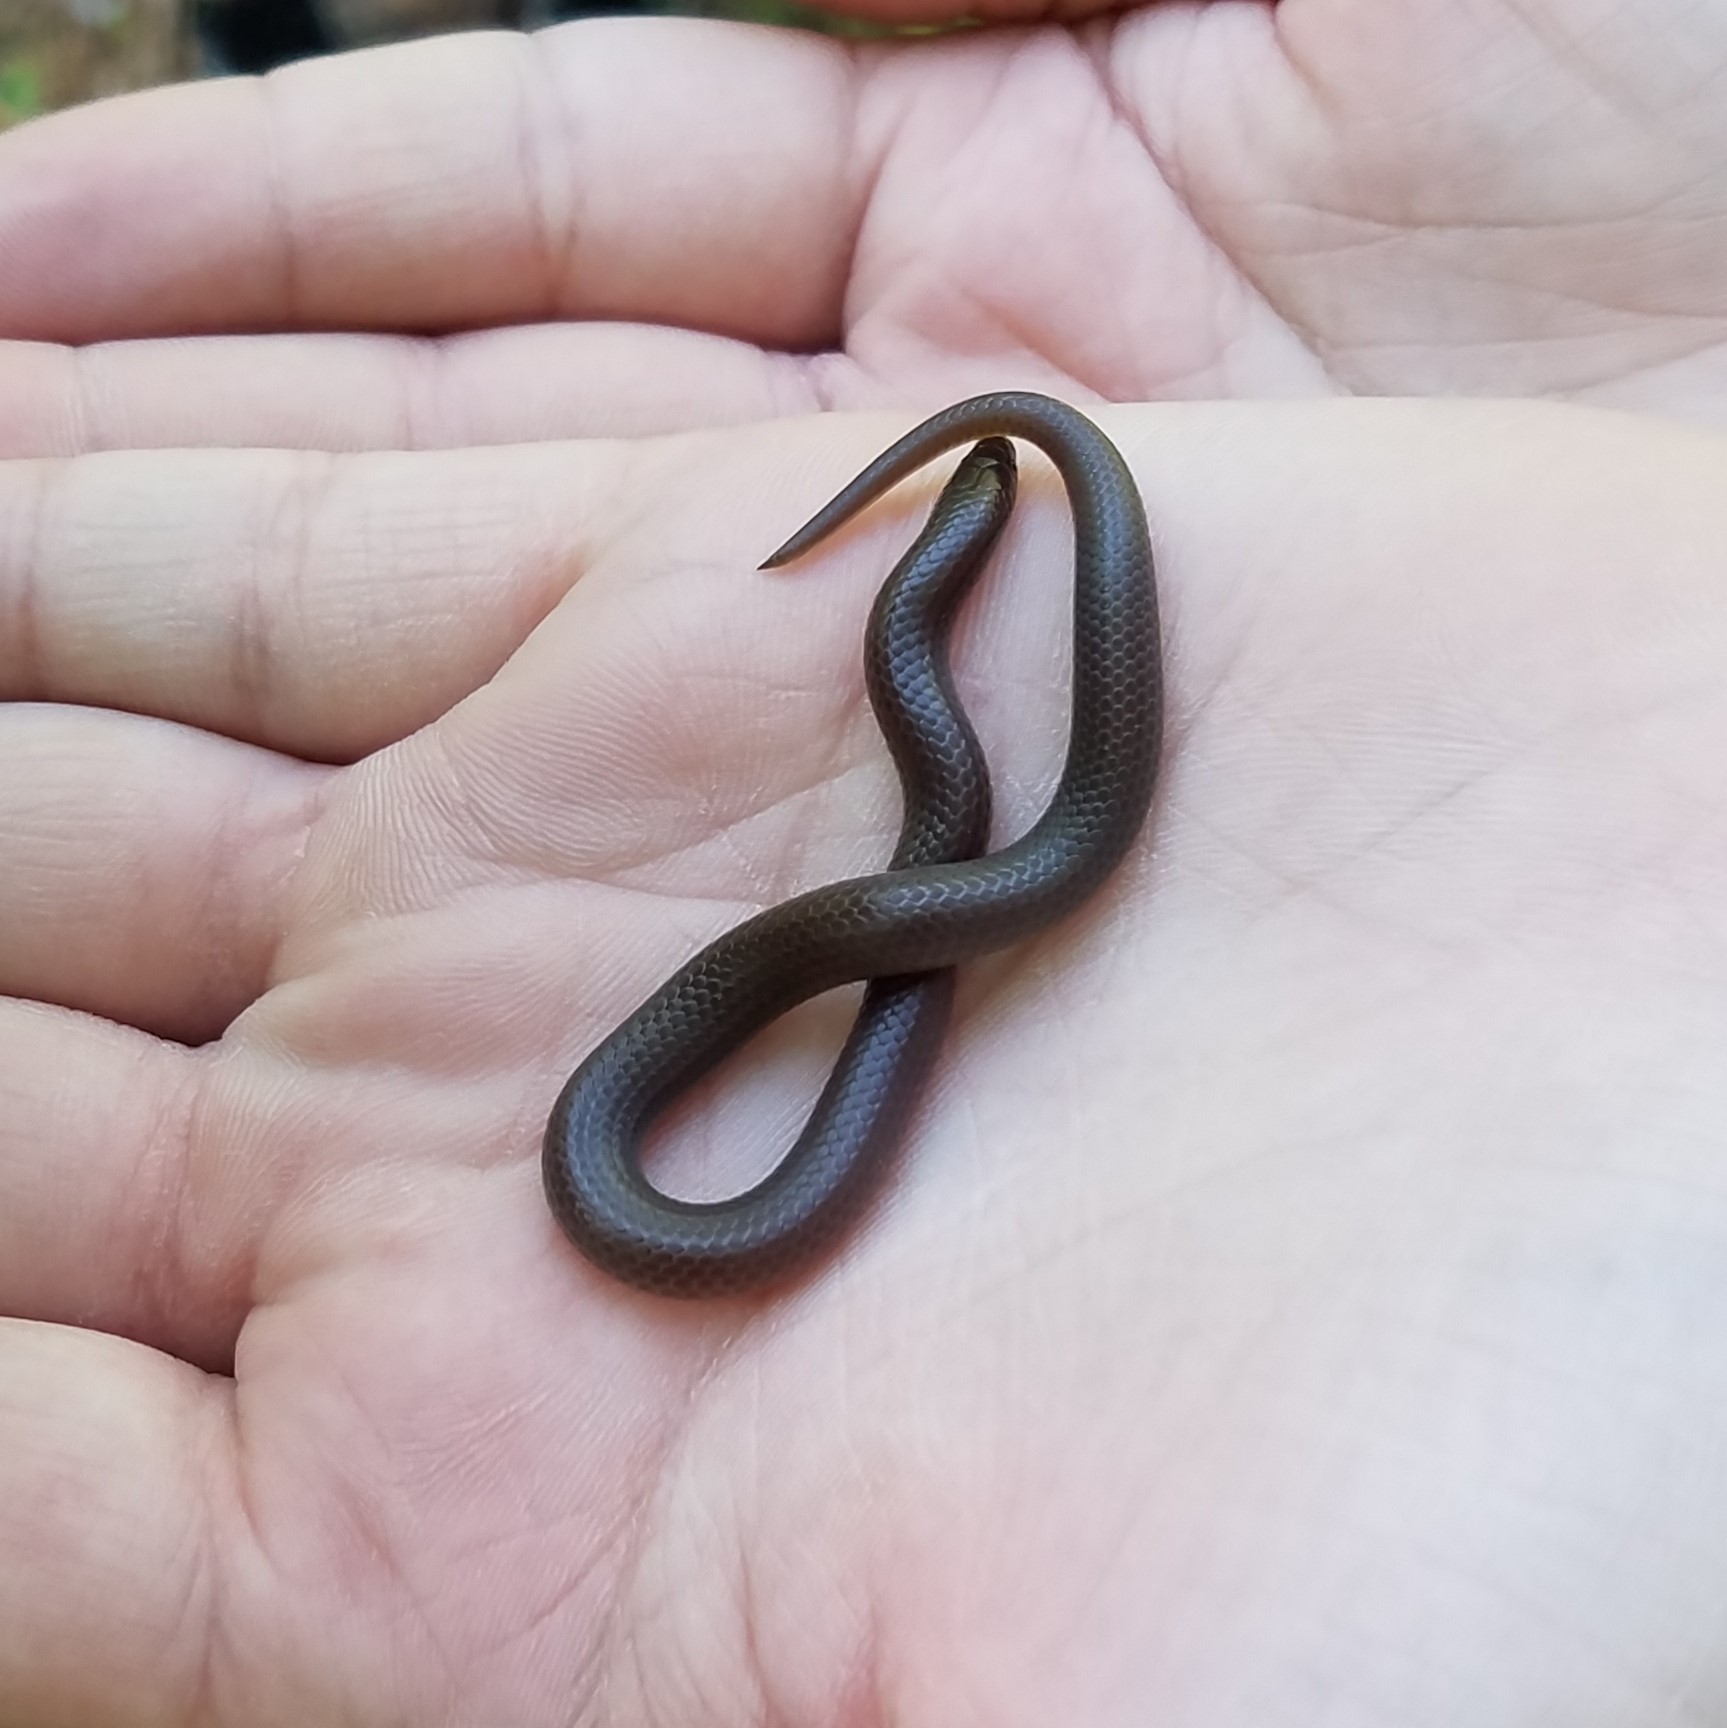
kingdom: Animalia
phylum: Chordata
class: Squamata
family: Colubridae
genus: Carphophis
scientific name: Carphophis amoenus
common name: Eastern worm snake
